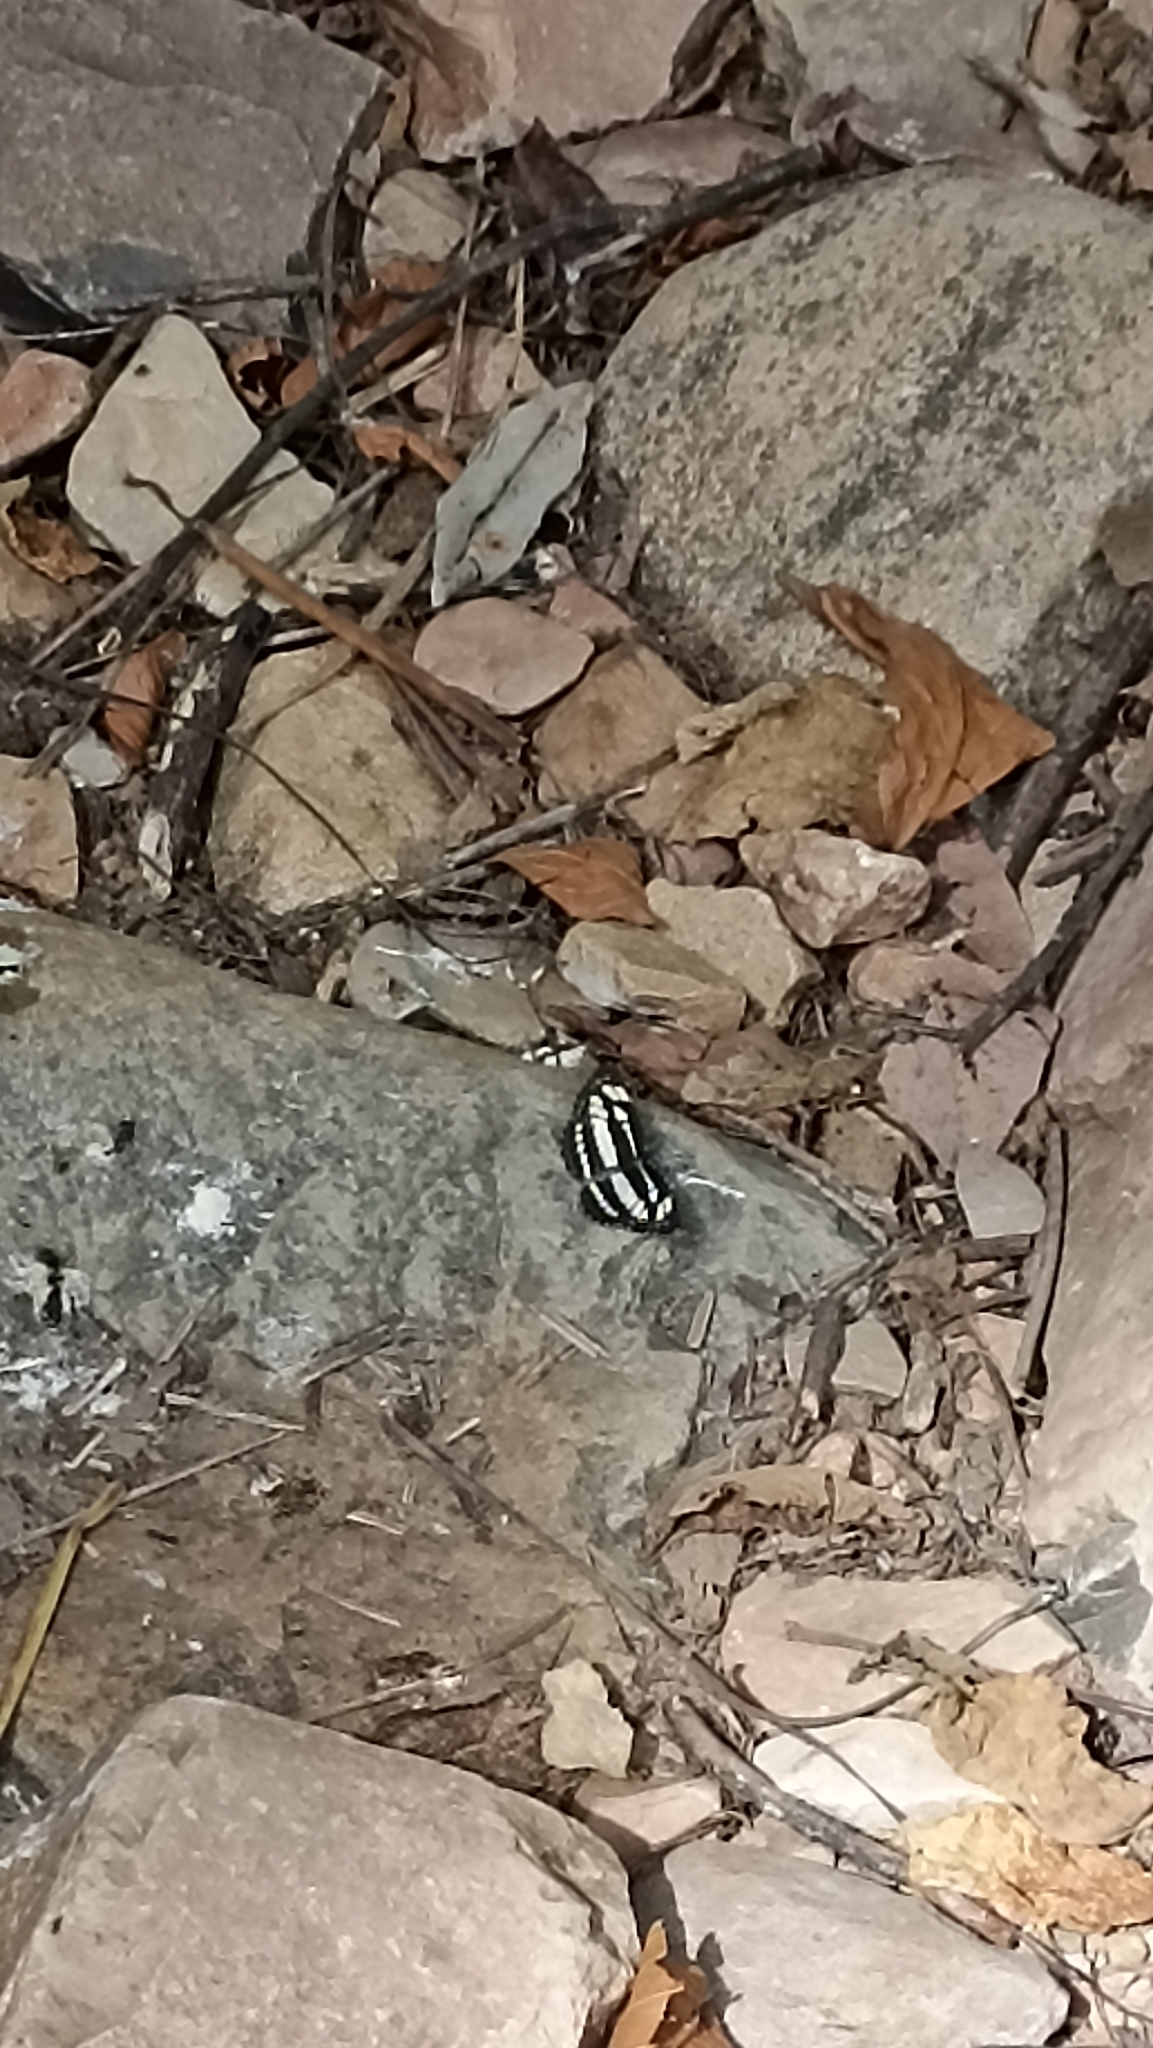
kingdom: Animalia
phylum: Arthropoda
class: Insecta
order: Lepidoptera
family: Nymphalidae
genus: Neptis
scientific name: Neptis hylas
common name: Common sailer
